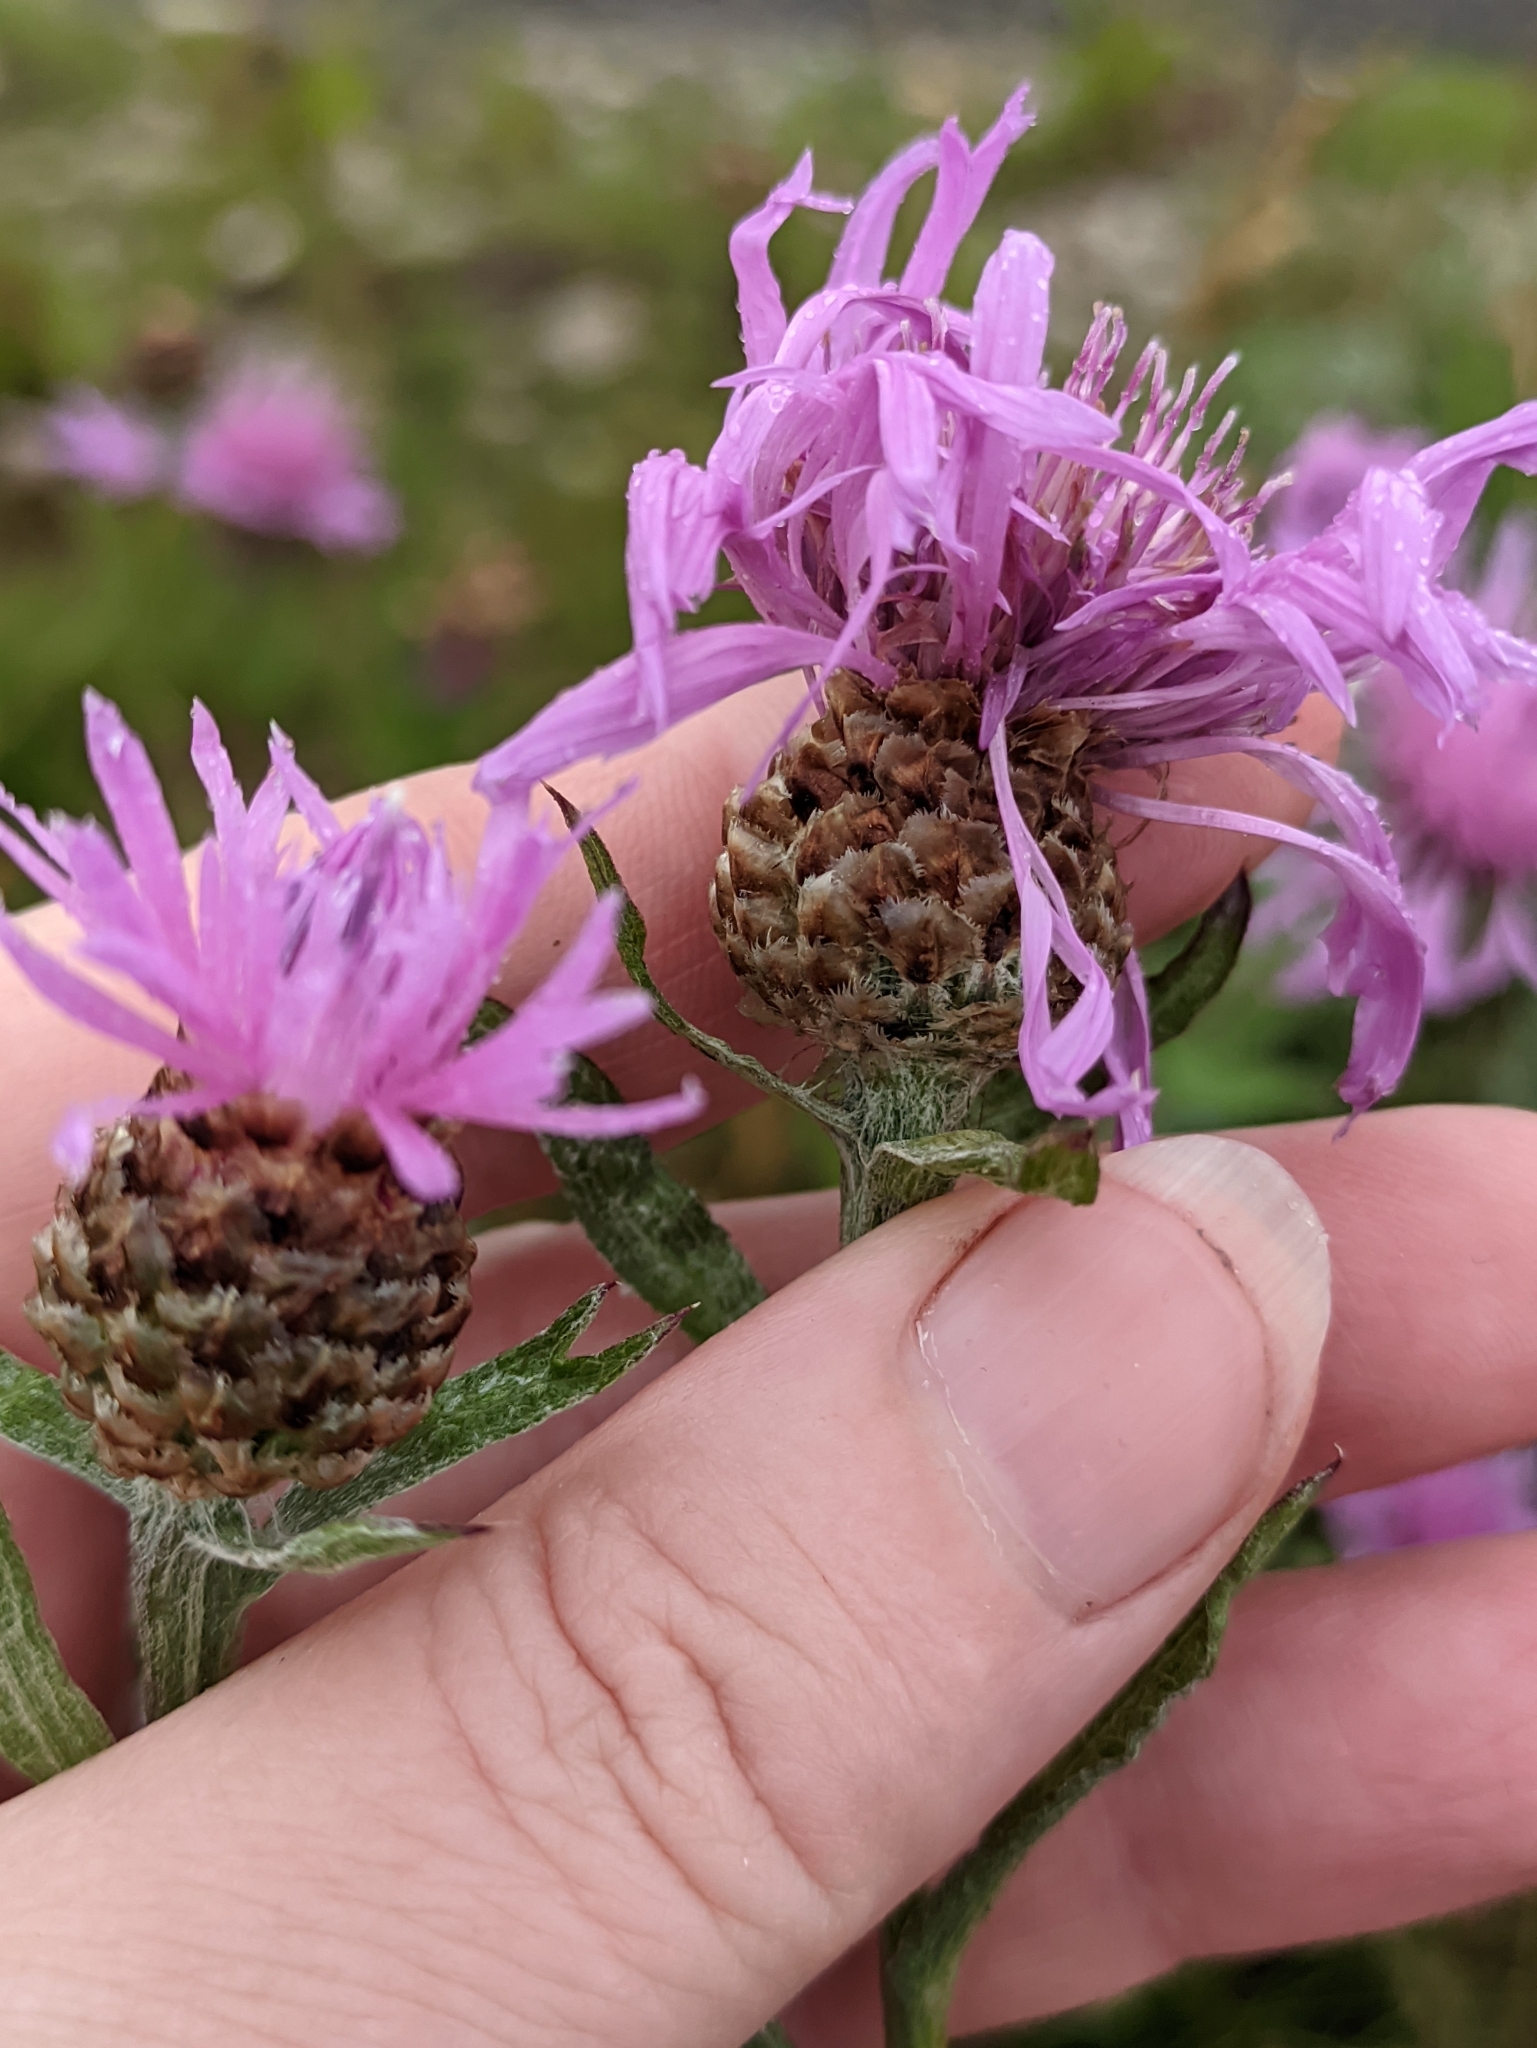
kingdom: Plantae
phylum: Tracheophyta
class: Magnoliopsida
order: Asterales
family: Asteraceae
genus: Centaurea
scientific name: Centaurea jacea
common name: Brown knapweed
